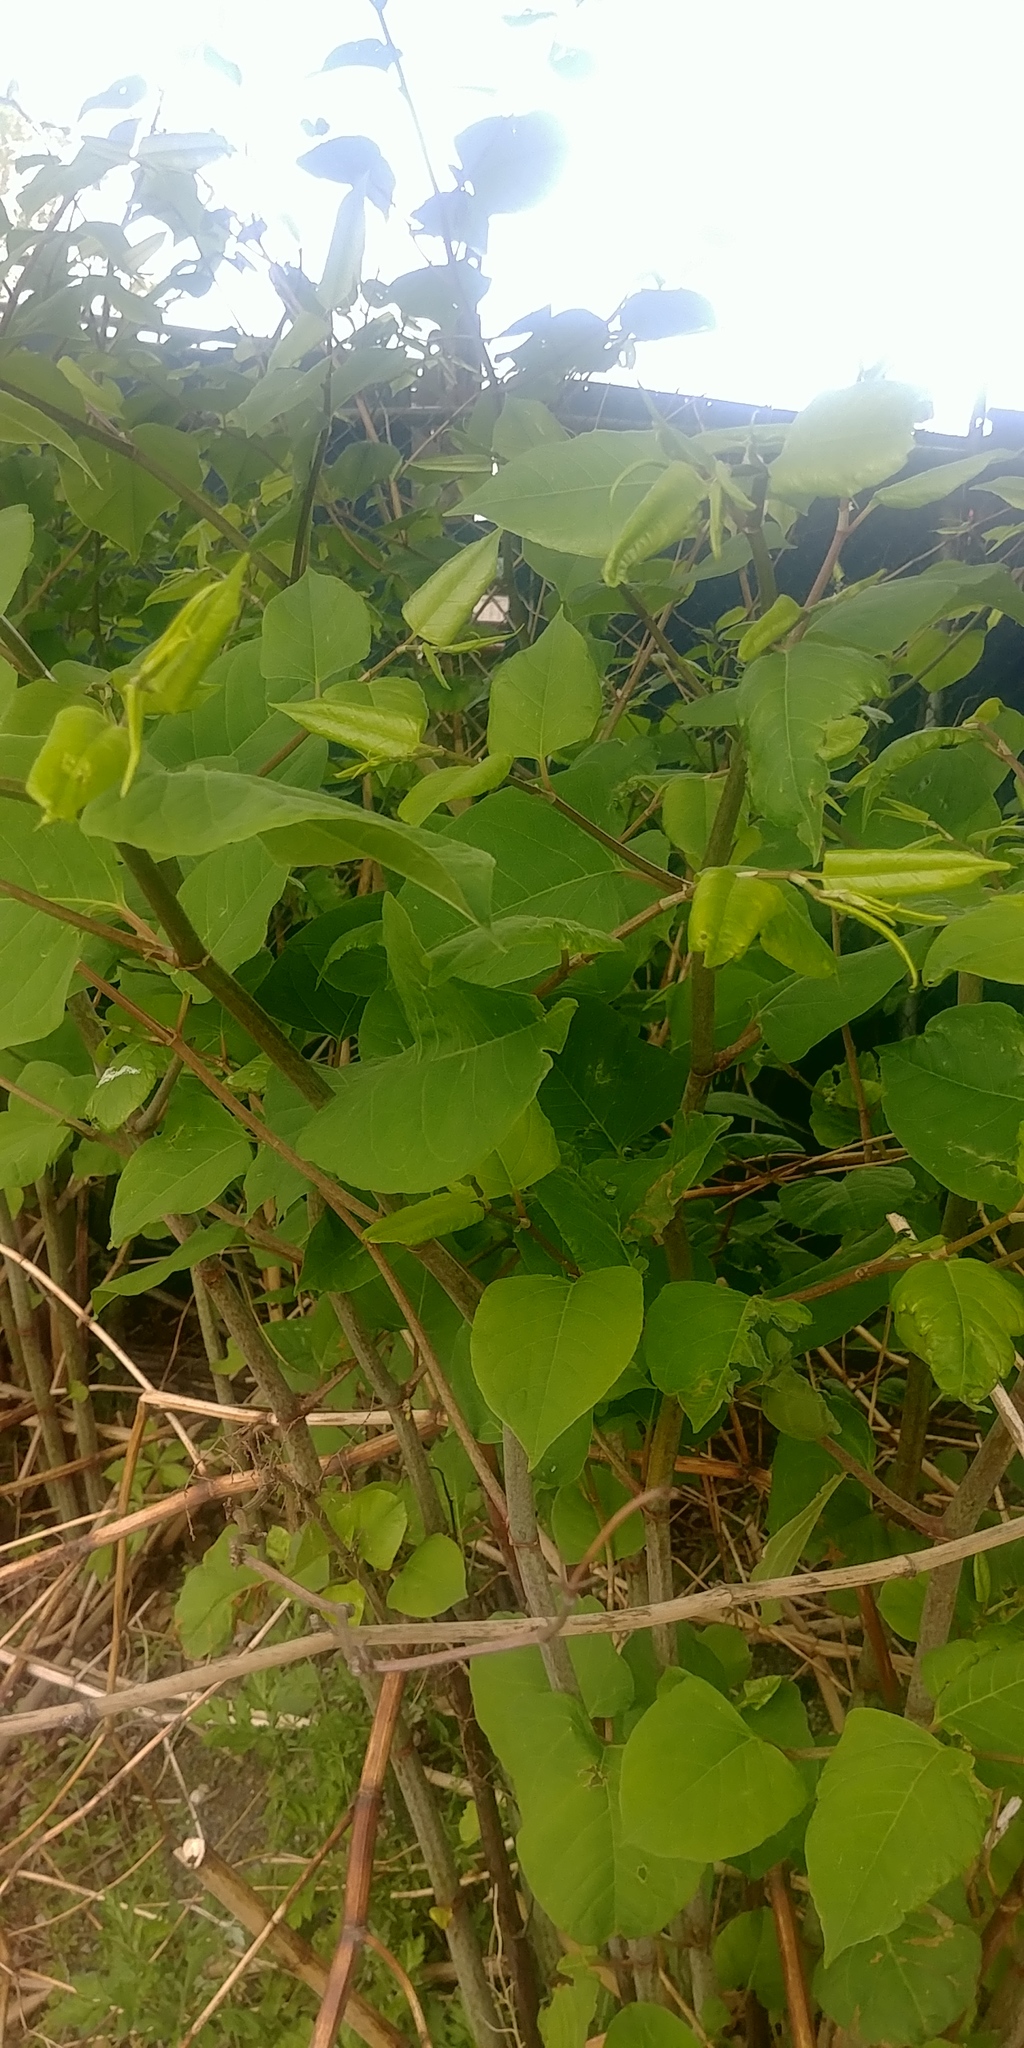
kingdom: Plantae
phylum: Tracheophyta
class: Magnoliopsida
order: Caryophyllales
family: Polygonaceae
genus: Reynoutria
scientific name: Reynoutria japonica
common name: Japanese knotweed
